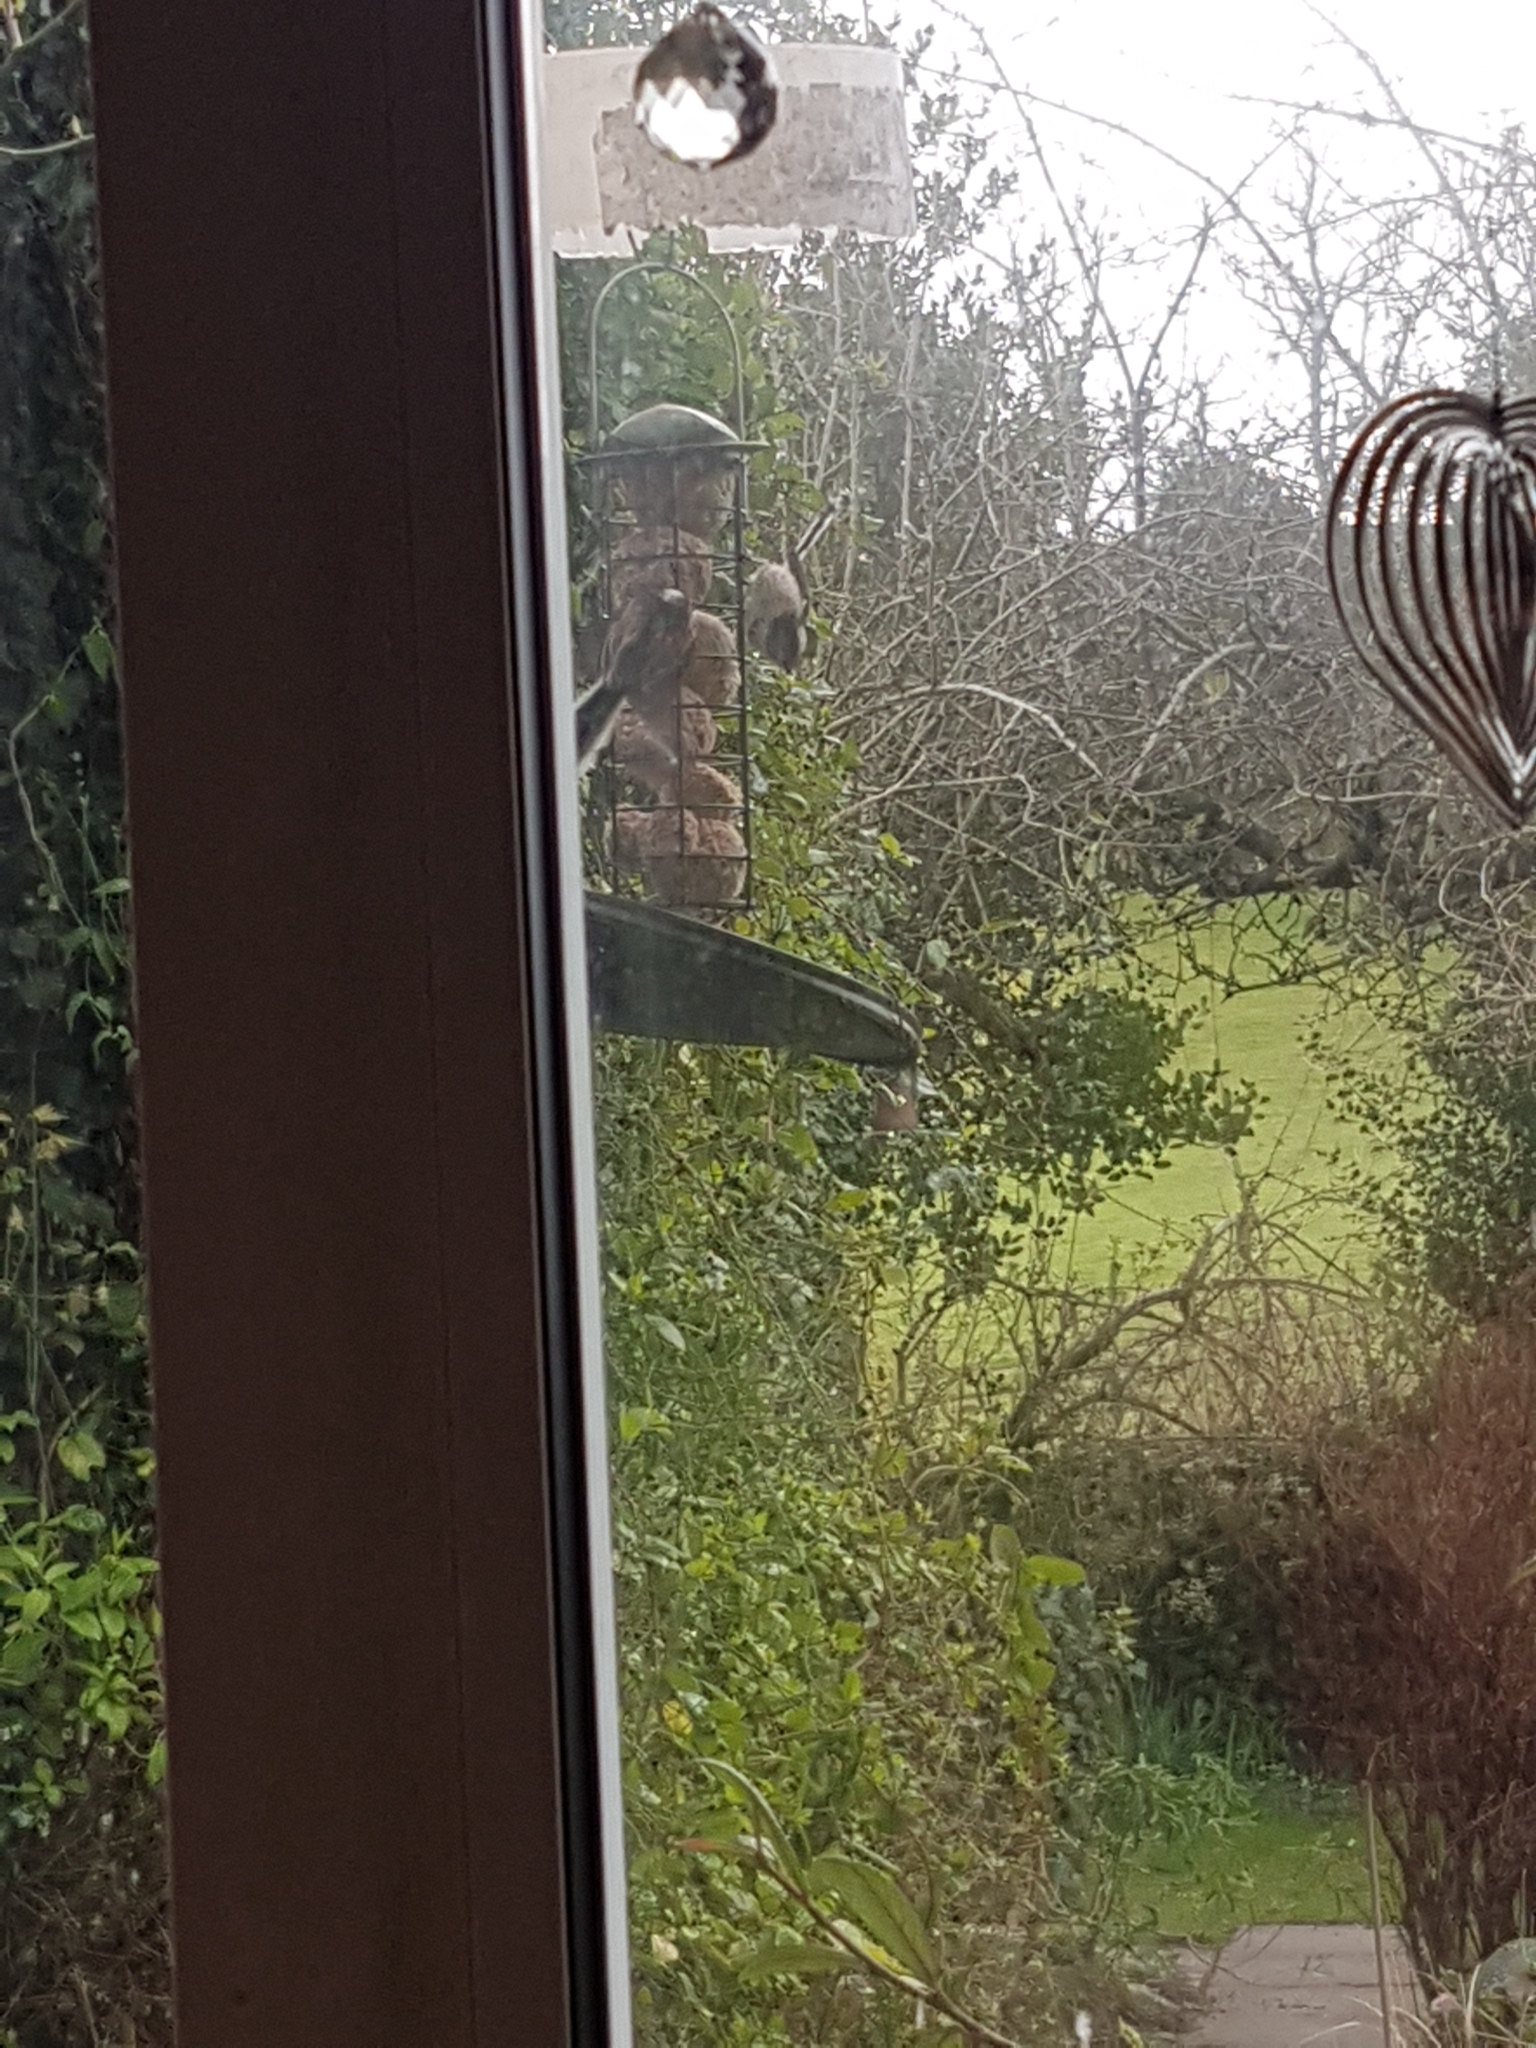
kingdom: Animalia
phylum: Chordata
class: Aves
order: Passeriformes
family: Aegithalidae
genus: Aegithalos
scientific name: Aegithalos caudatus
